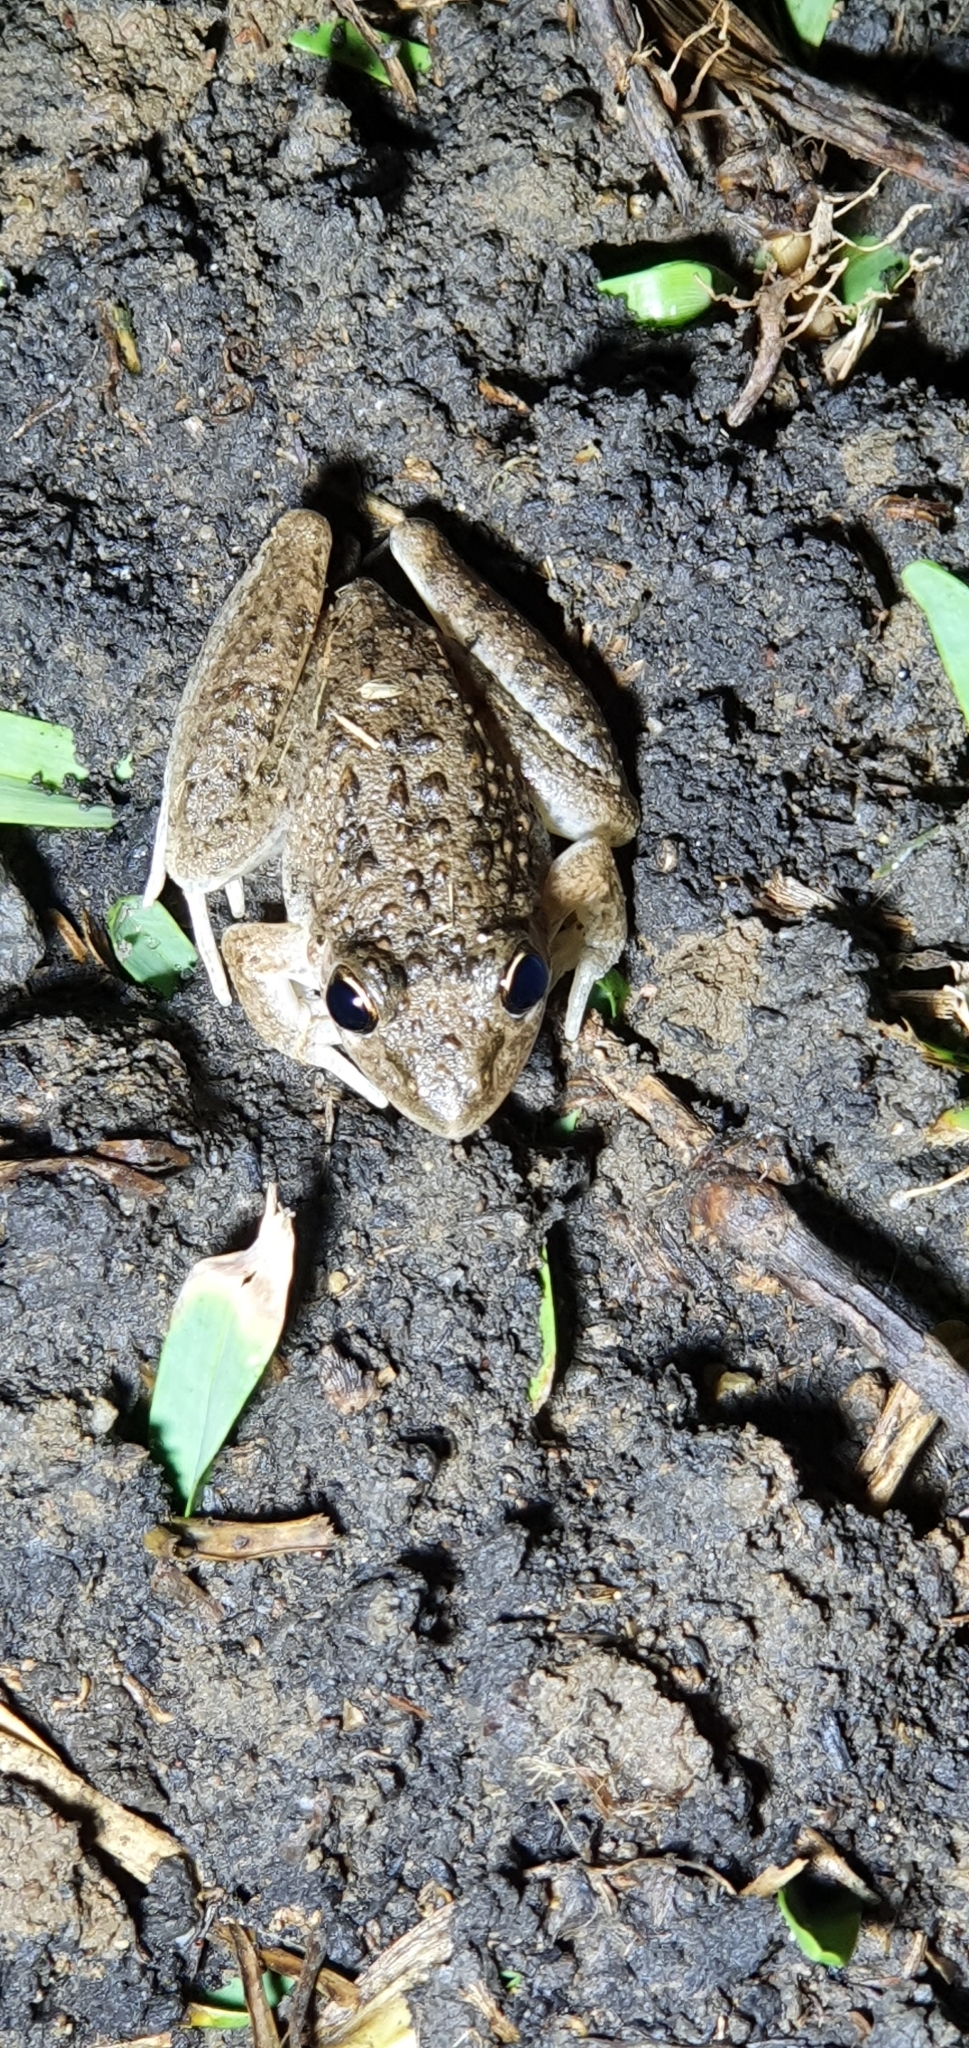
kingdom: Animalia
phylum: Chordata
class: Amphibia
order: Anura
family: Pelodryadidae
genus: Litoria
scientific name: Litoria inermis
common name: Bumpy rocket frog
